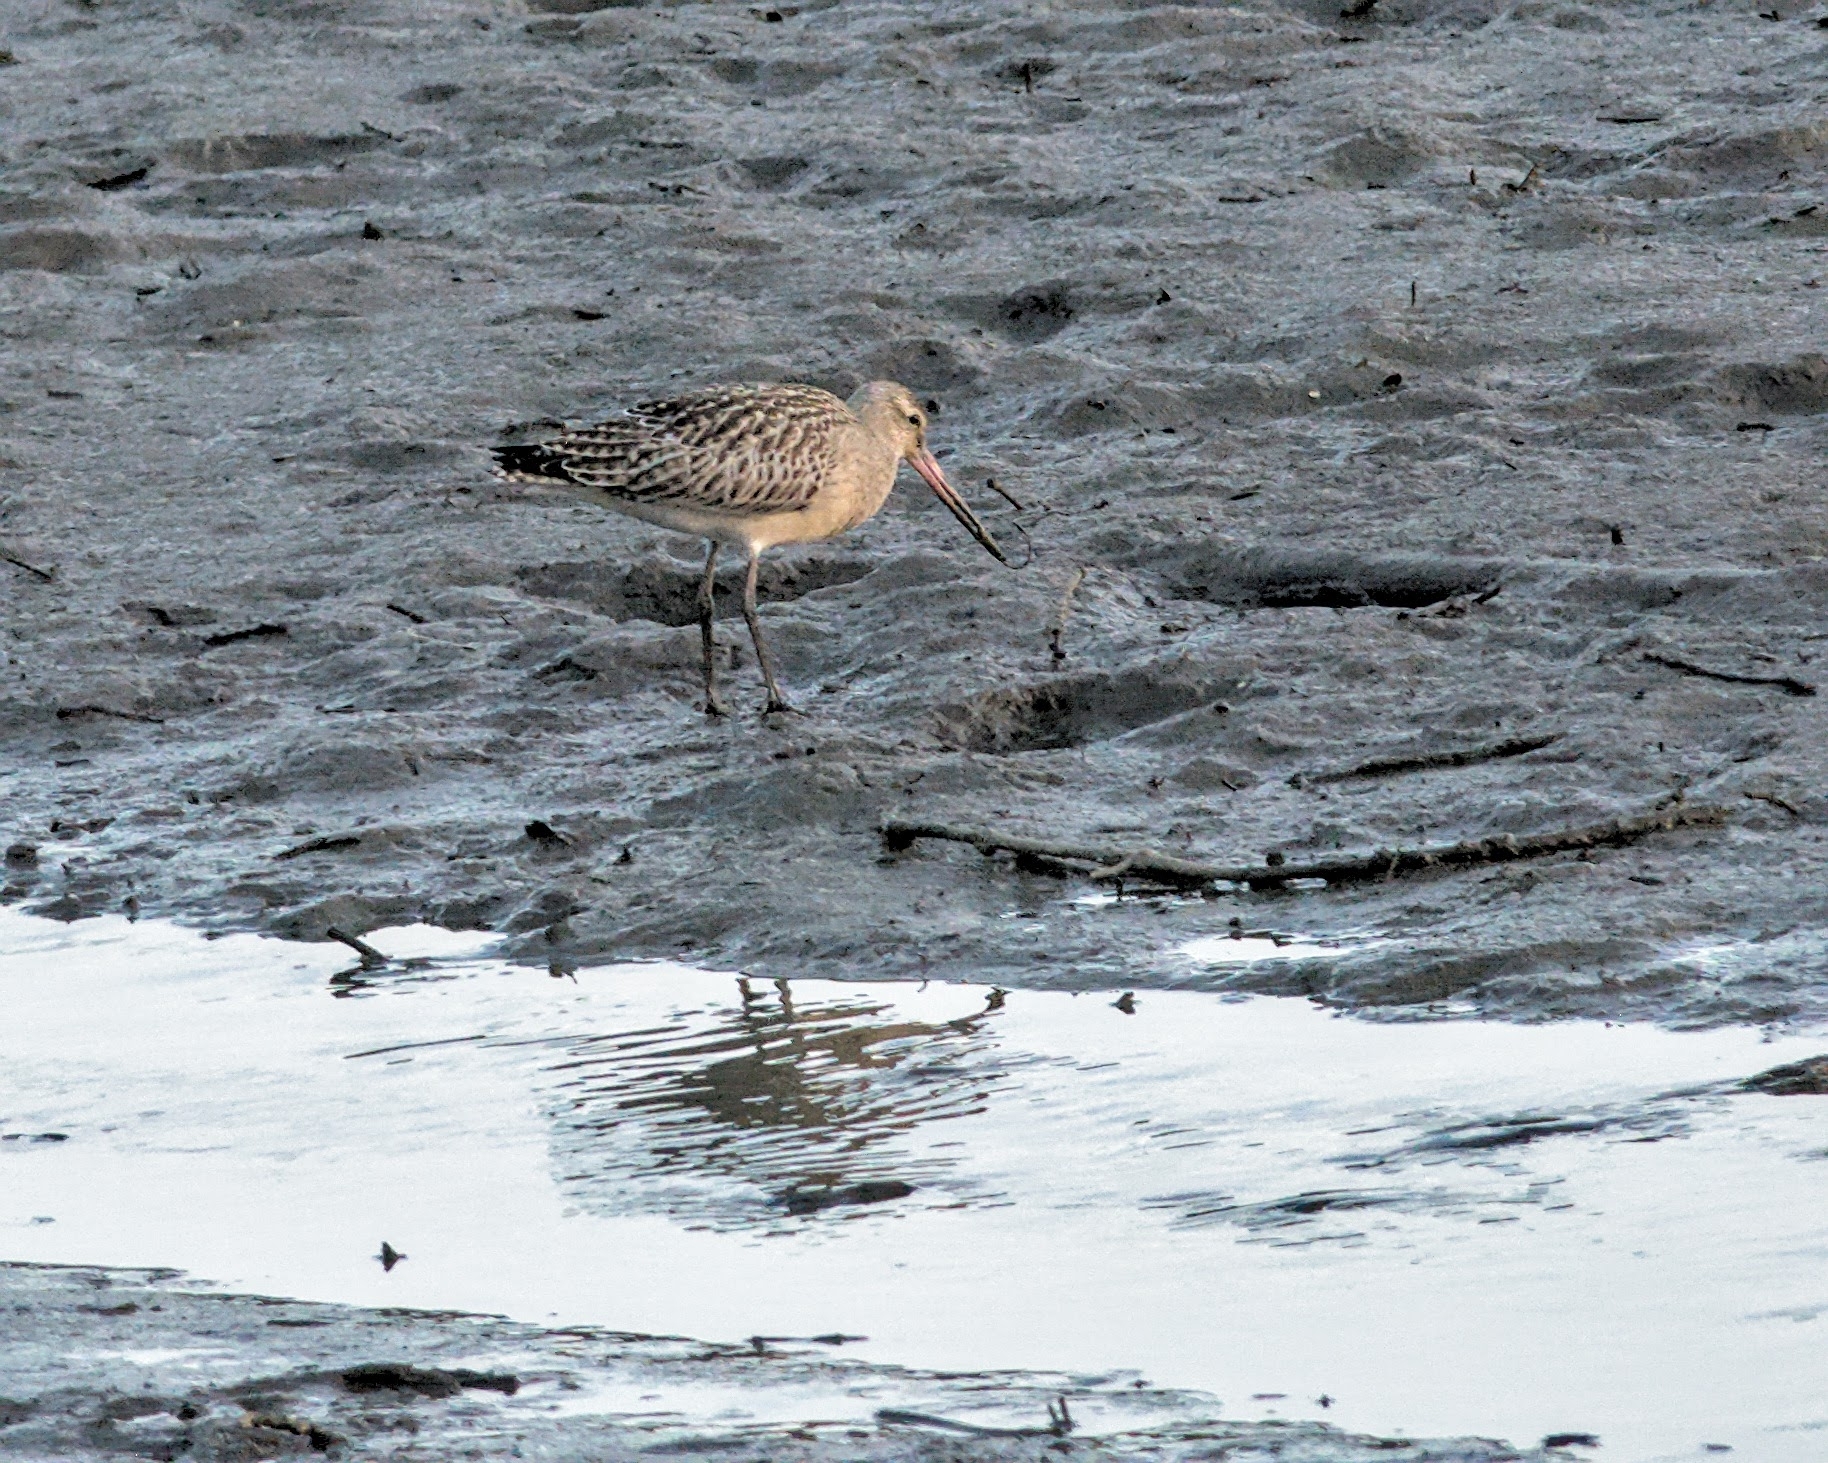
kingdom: Animalia
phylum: Chordata
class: Aves
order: Charadriiformes
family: Scolopacidae
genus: Limosa
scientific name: Limosa lapponica
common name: Bar-tailed godwit
